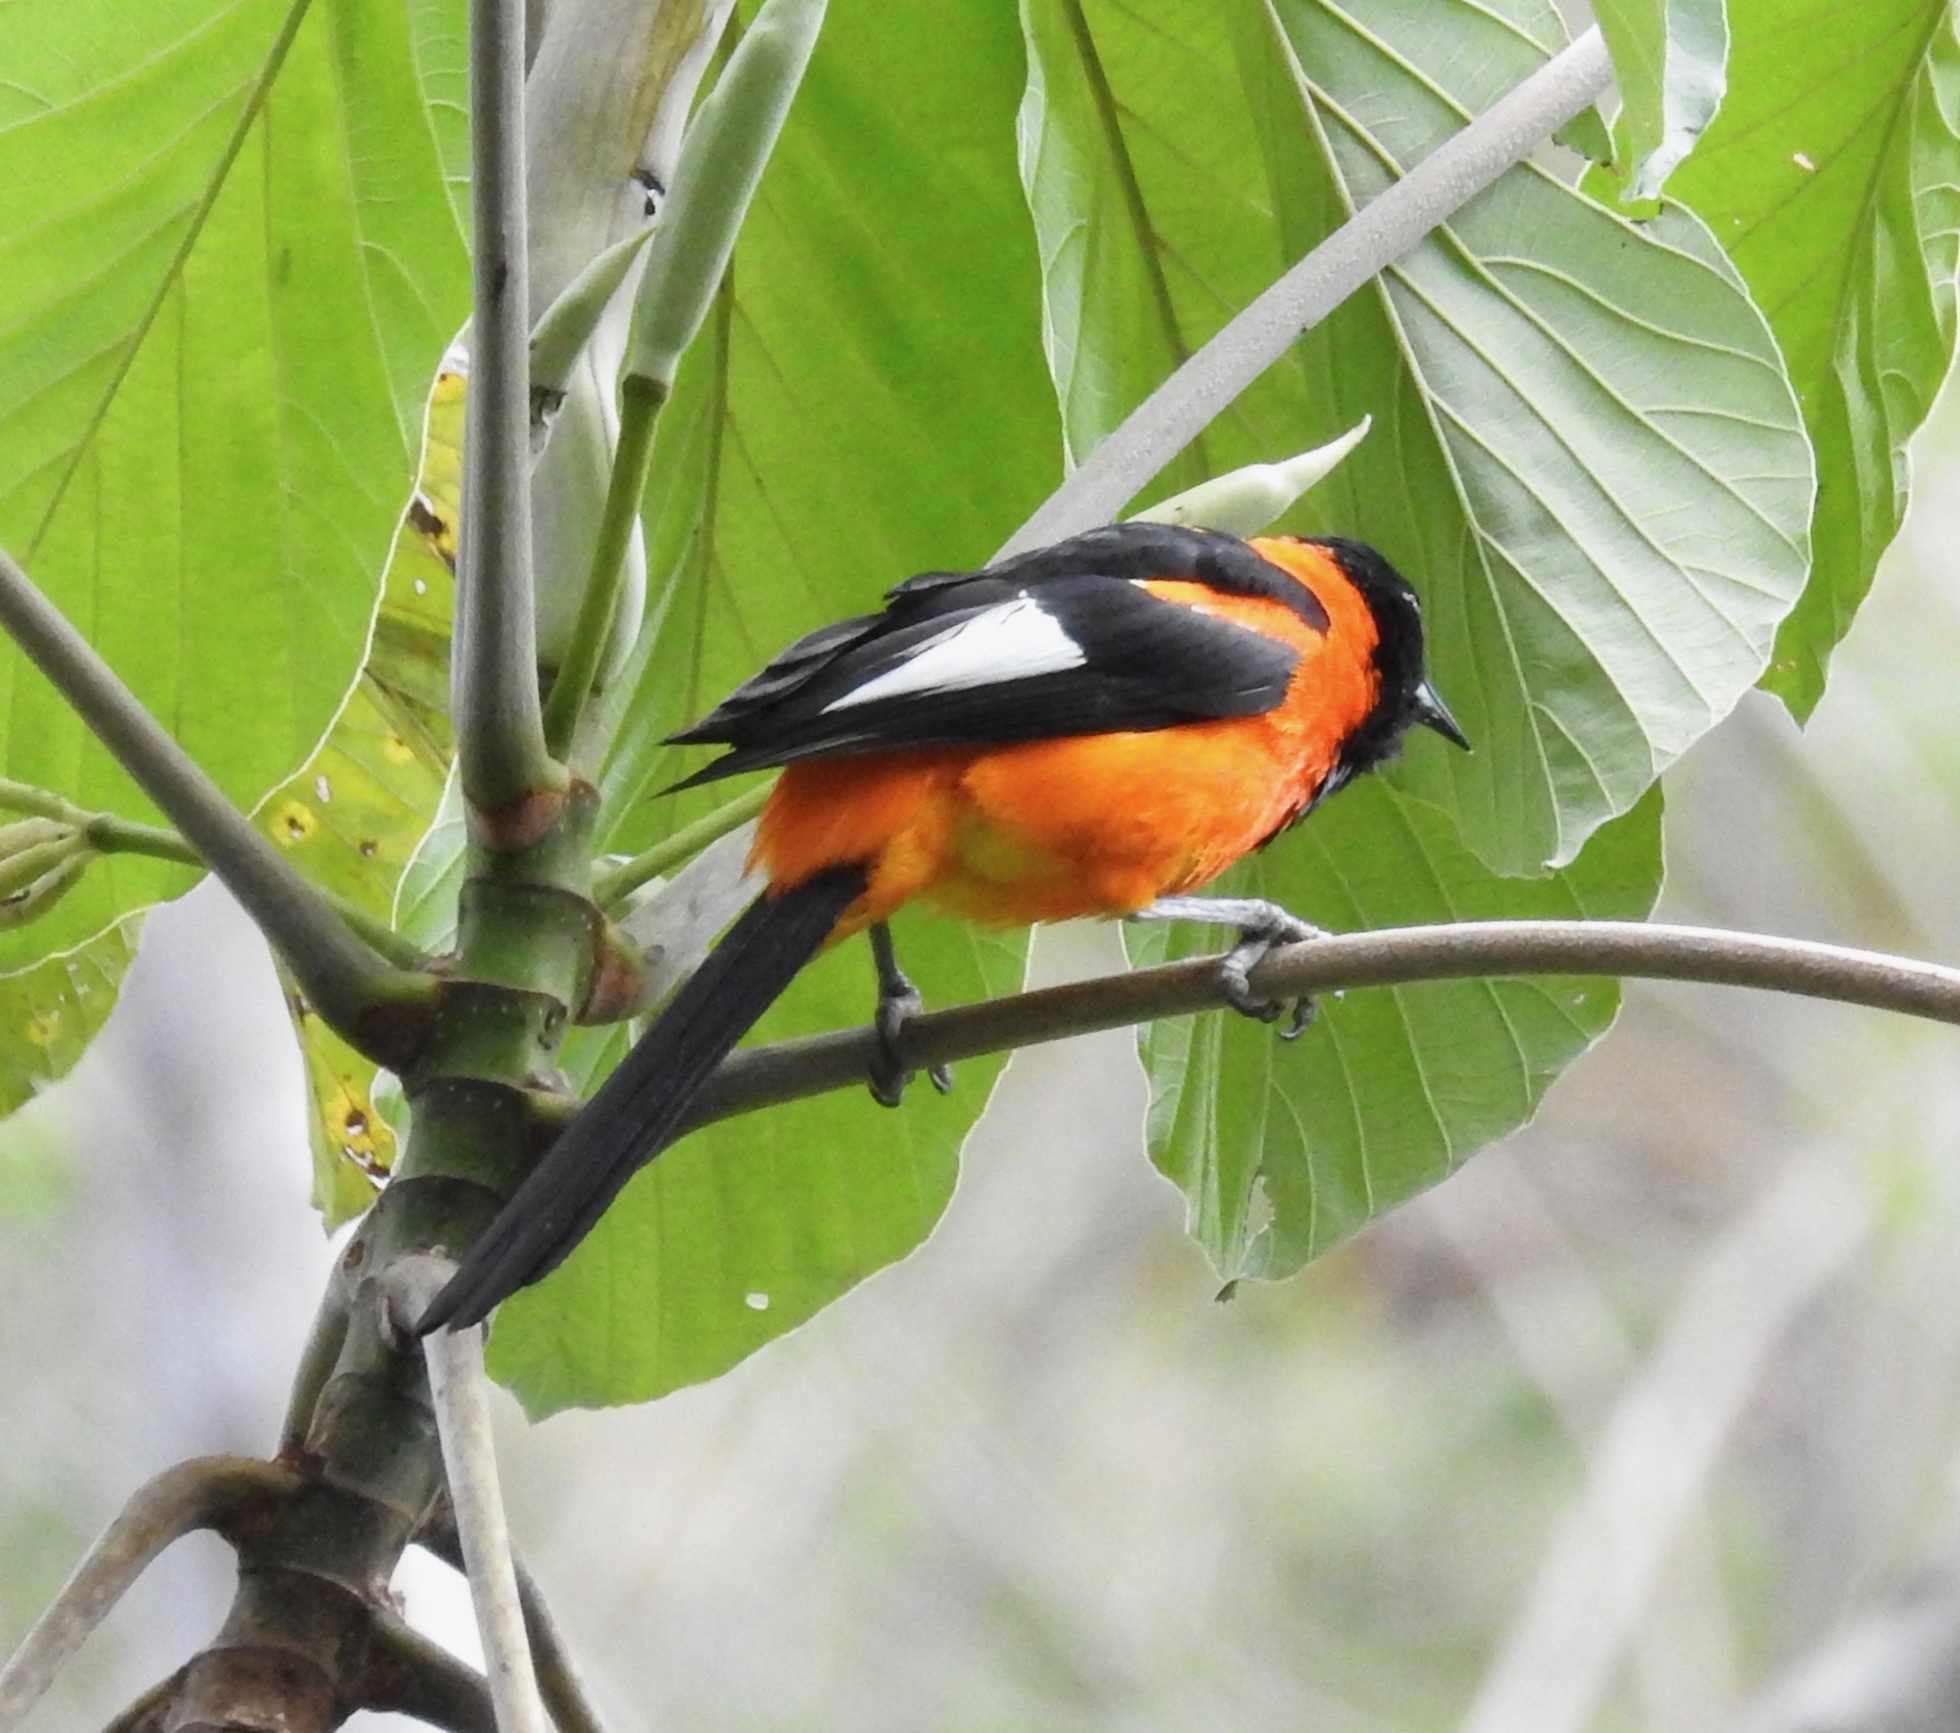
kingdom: Animalia
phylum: Chordata
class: Aves
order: Passeriformes
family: Icteridae
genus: Icterus
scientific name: Icterus icterus
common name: Venezuelan troupial
